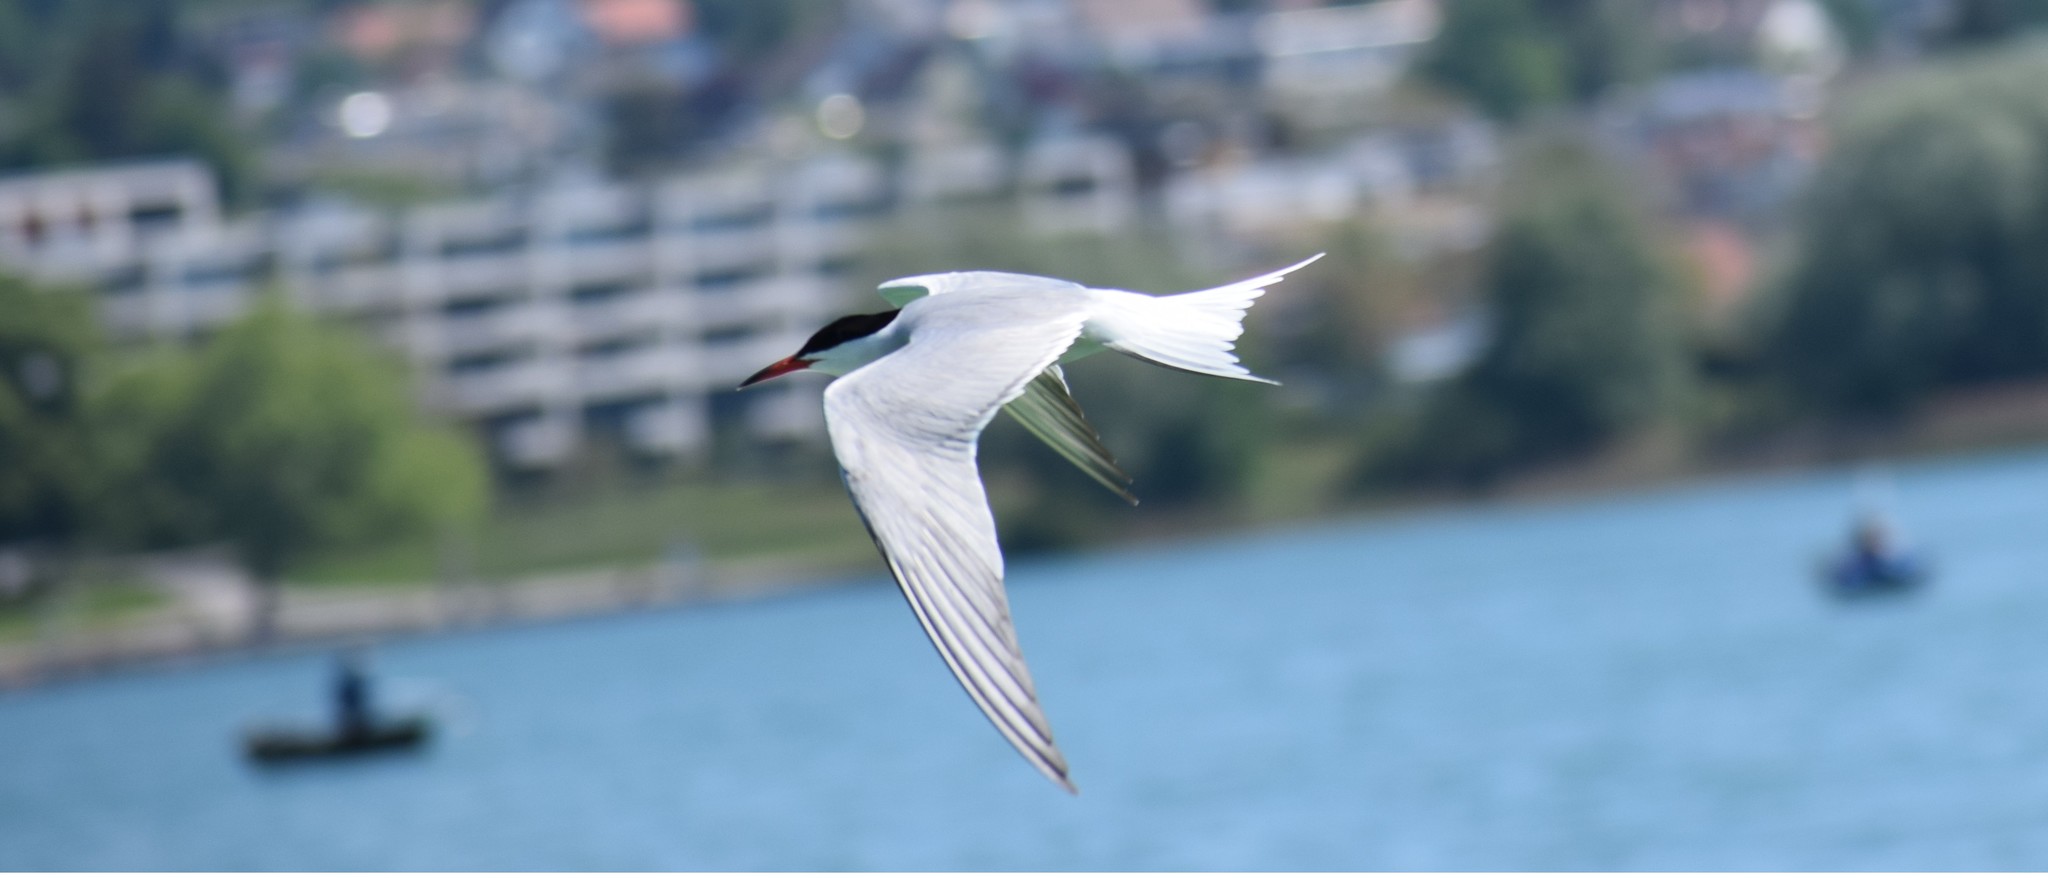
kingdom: Animalia
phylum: Chordata
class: Aves
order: Charadriiformes
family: Laridae
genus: Sterna
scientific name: Sterna hirundo
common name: Common tern
